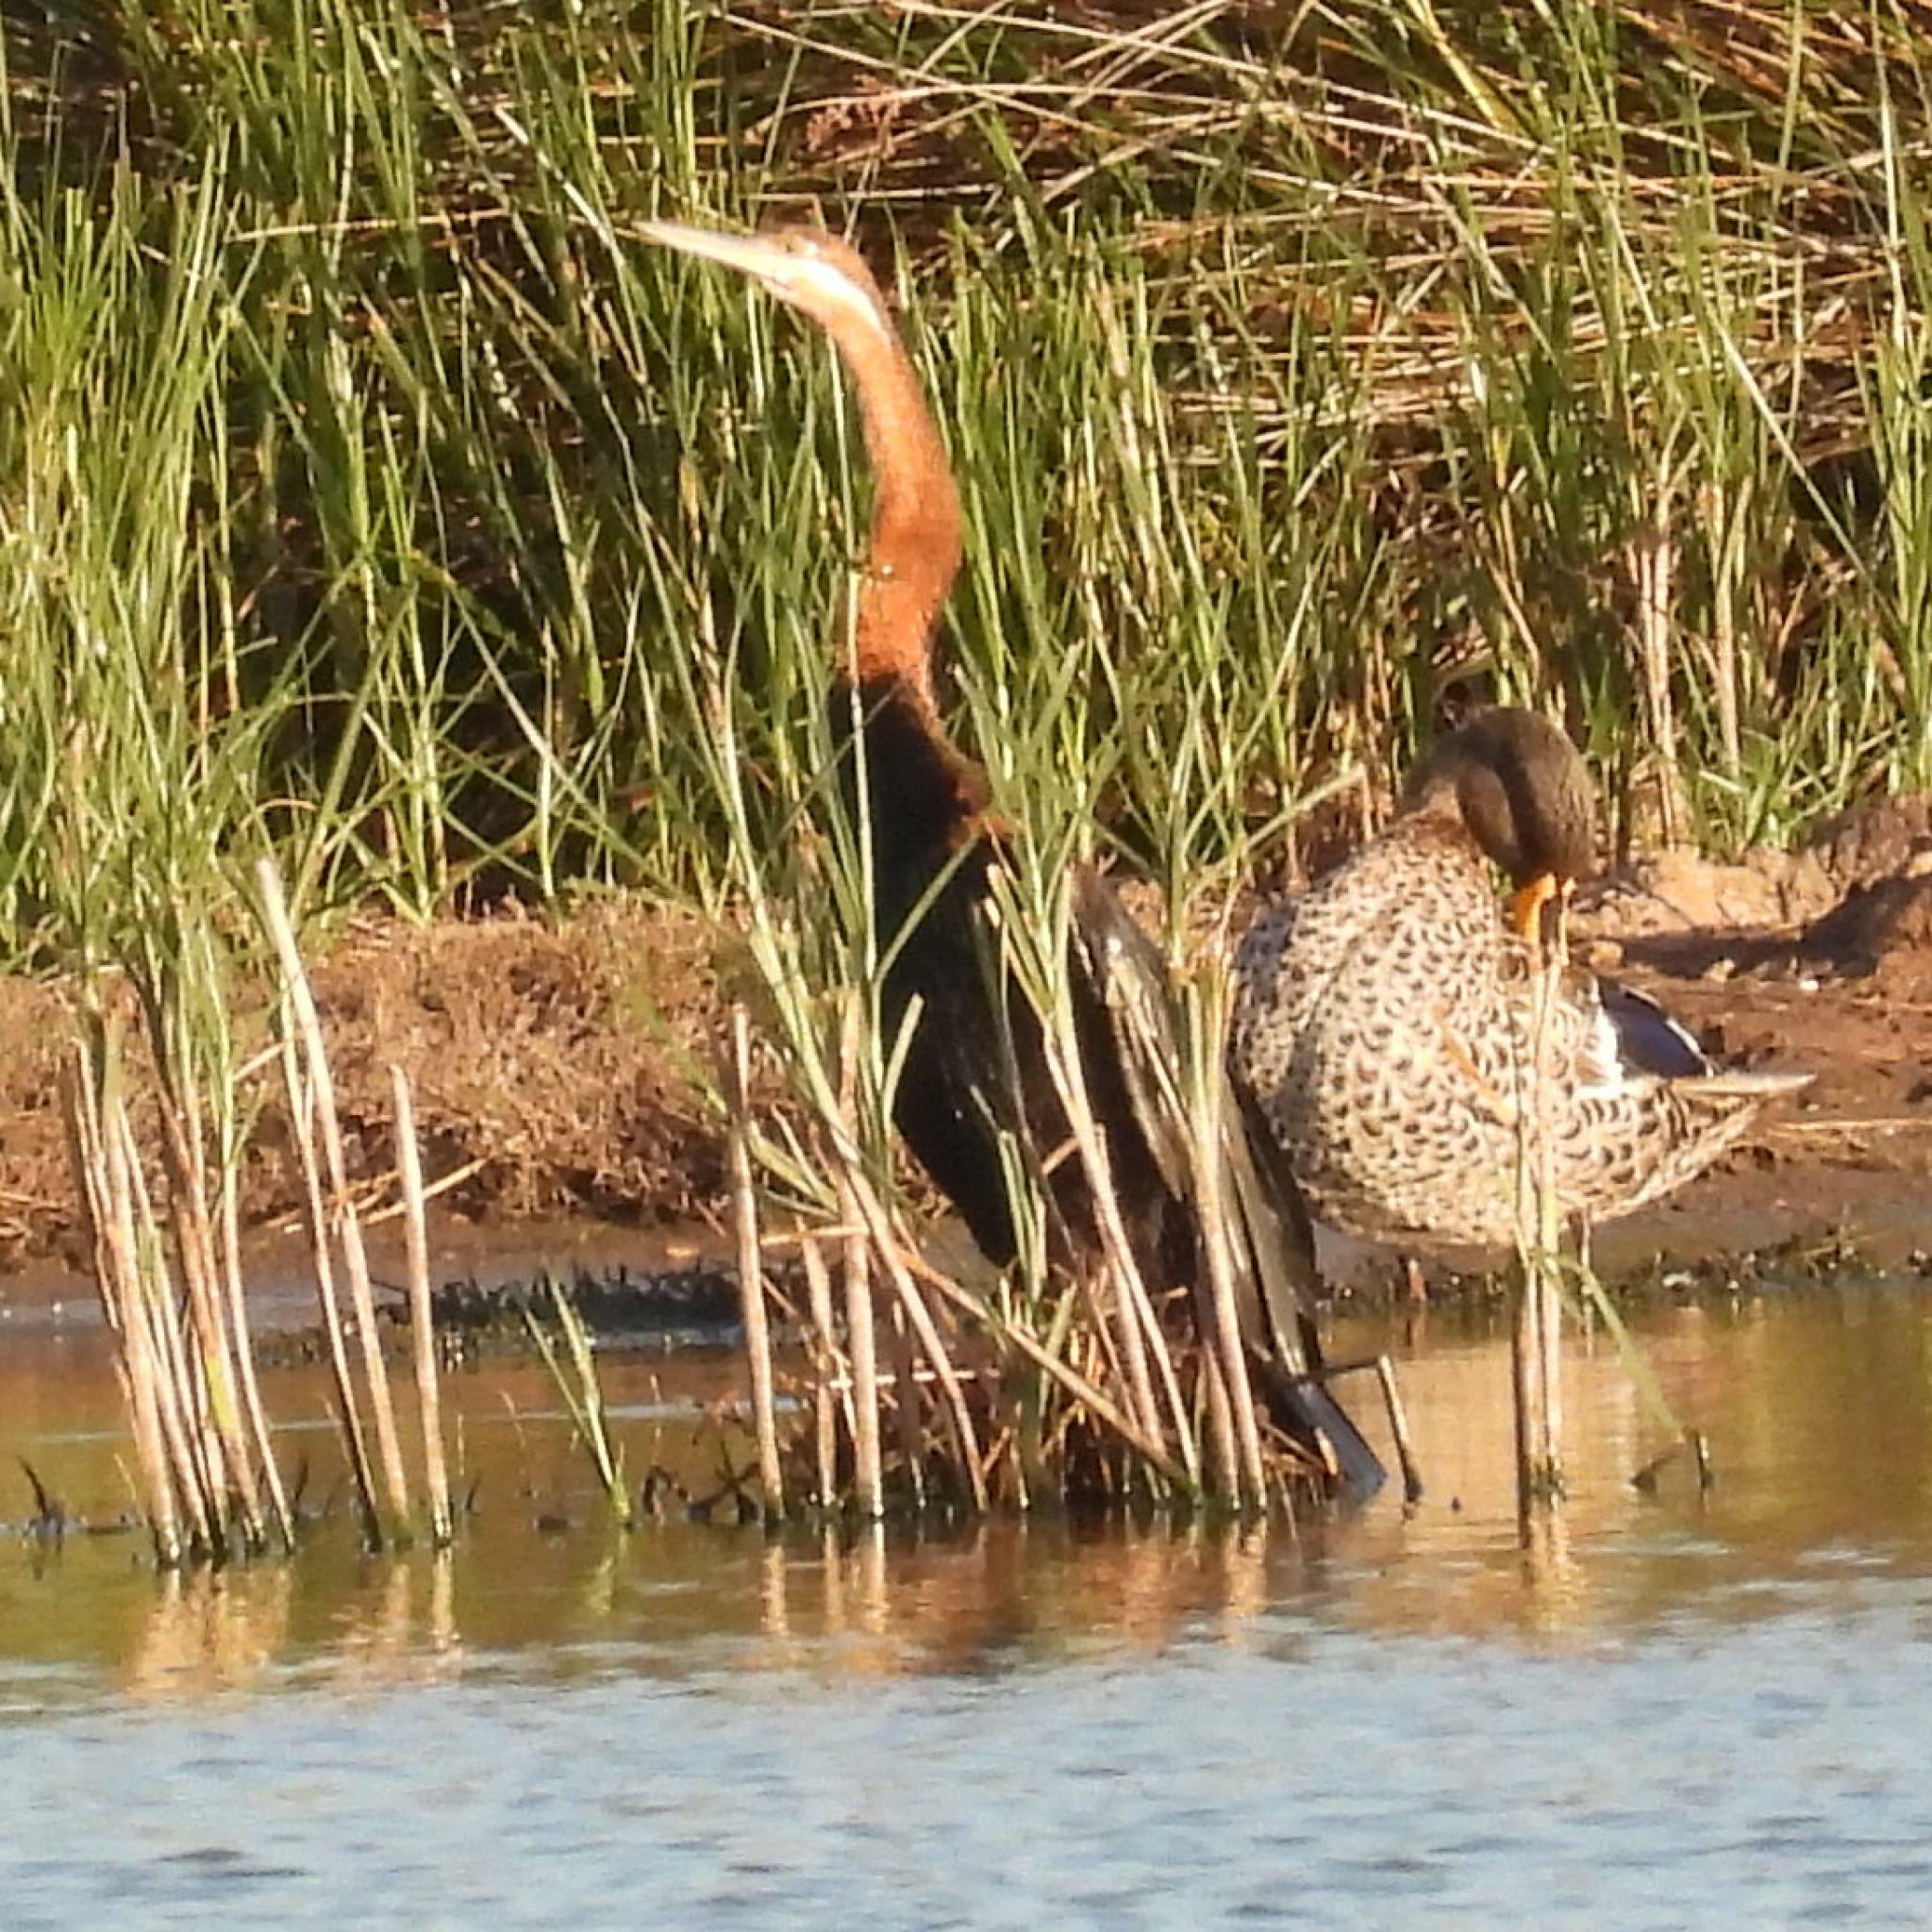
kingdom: Animalia
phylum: Chordata
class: Aves
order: Suliformes
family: Anhingidae
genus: Anhinga
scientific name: Anhinga rufa
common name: African darter
